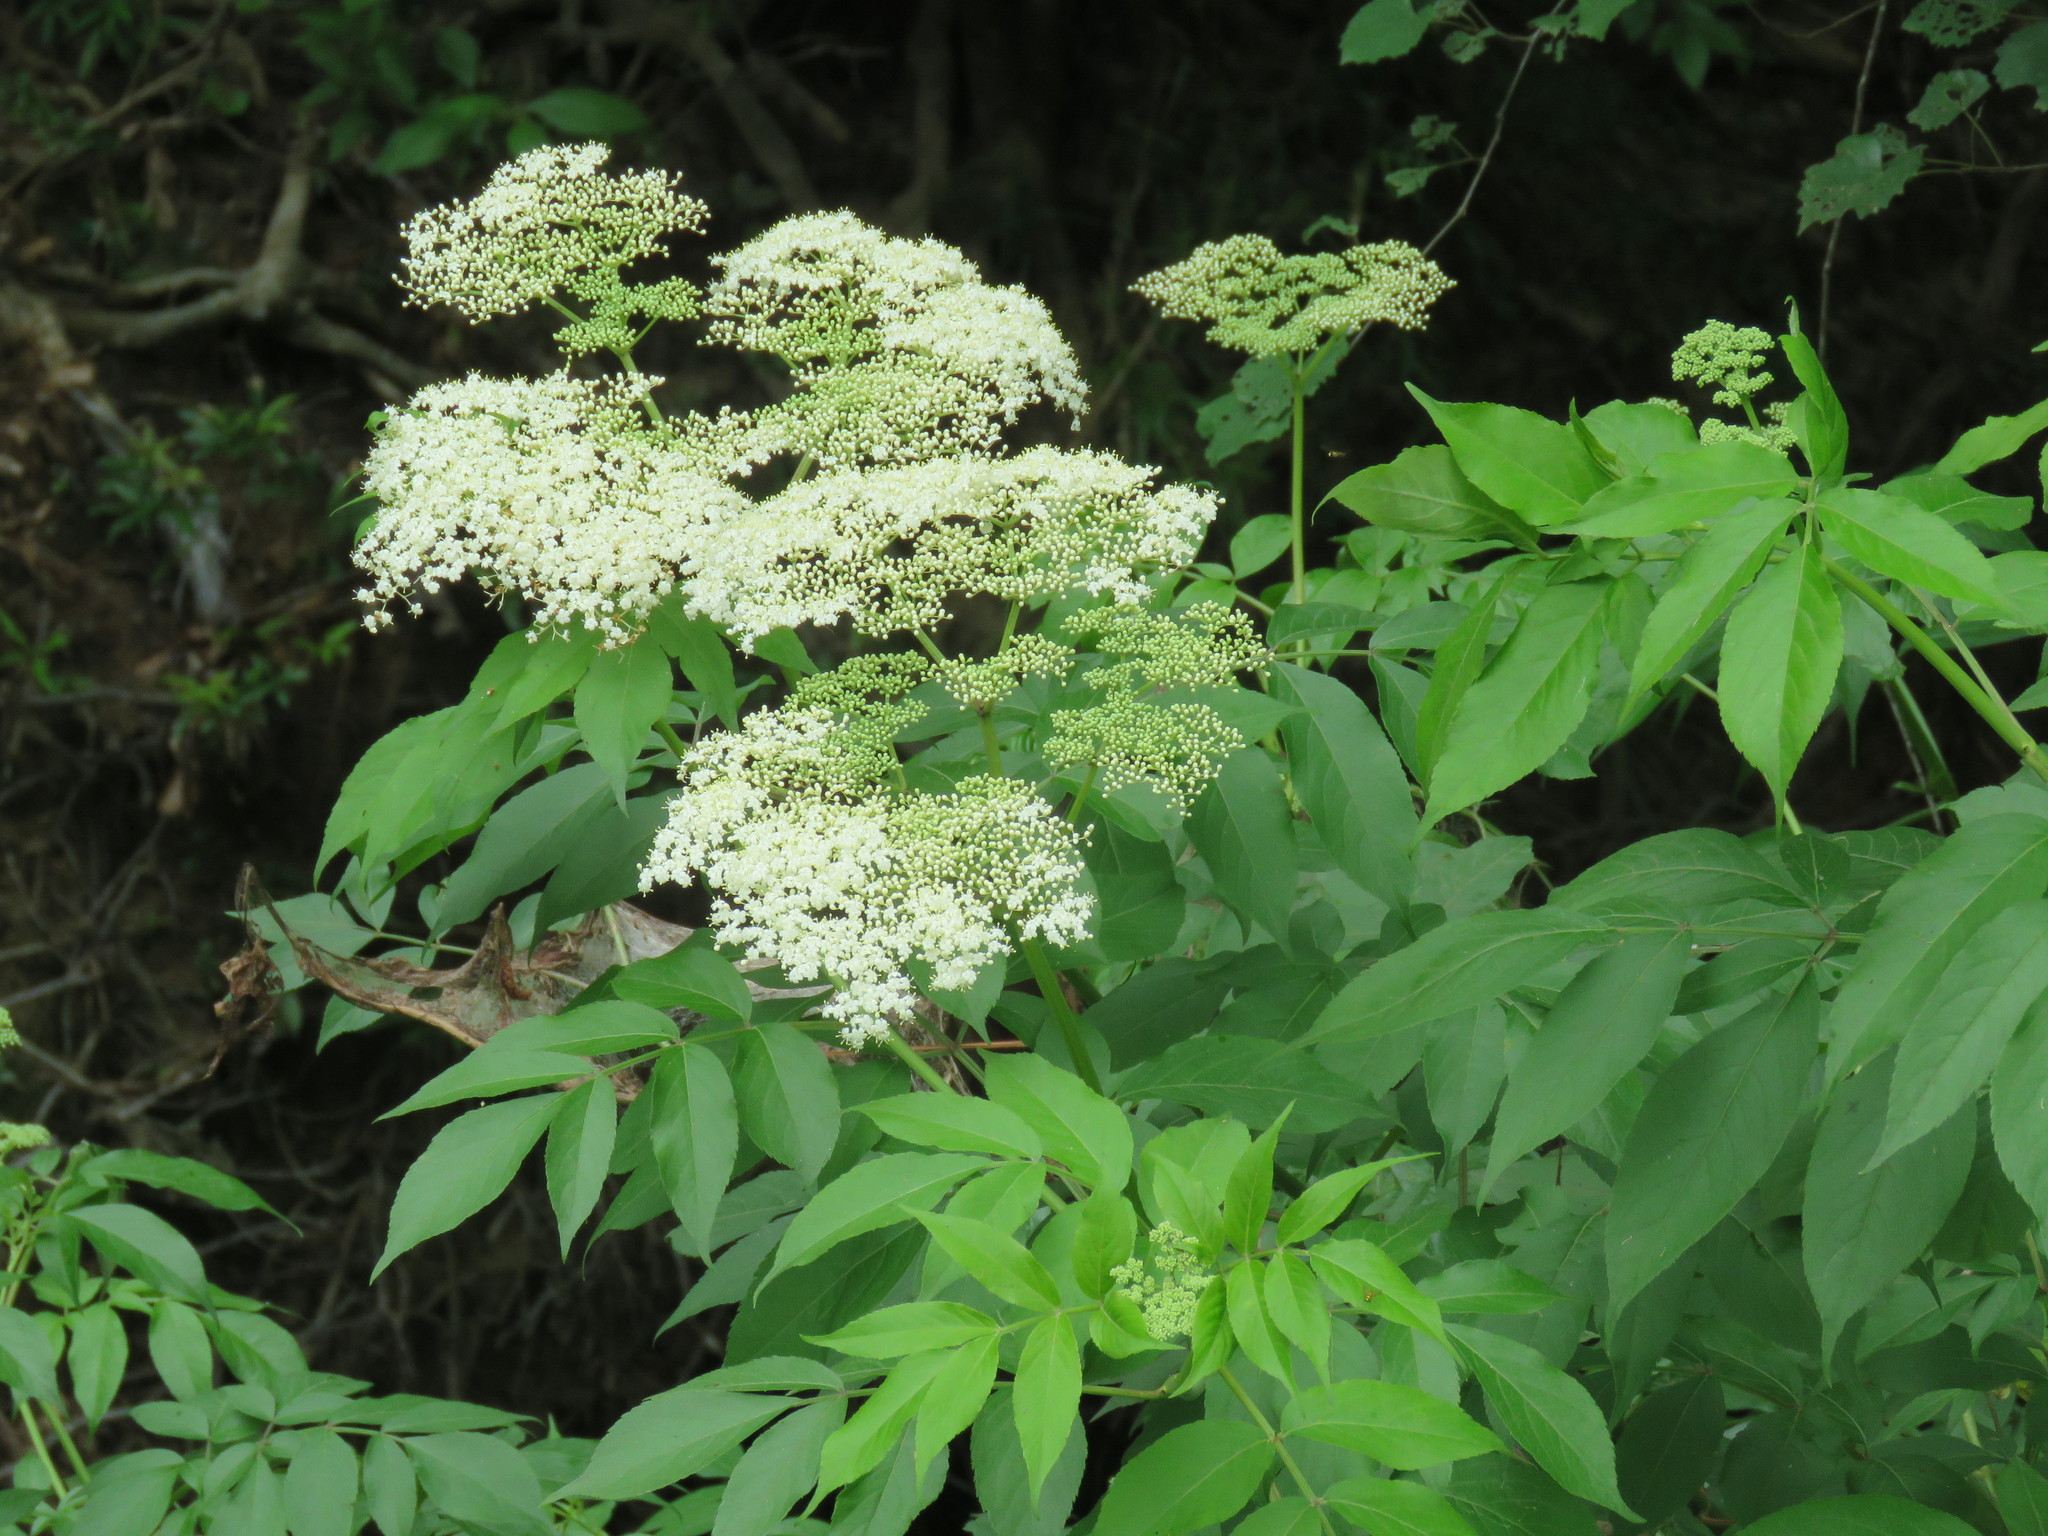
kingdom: Plantae
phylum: Tracheophyta
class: Magnoliopsida
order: Dipsacales
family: Viburnaceae
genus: Sambucus
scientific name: Sambucus canadensis
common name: American elder
